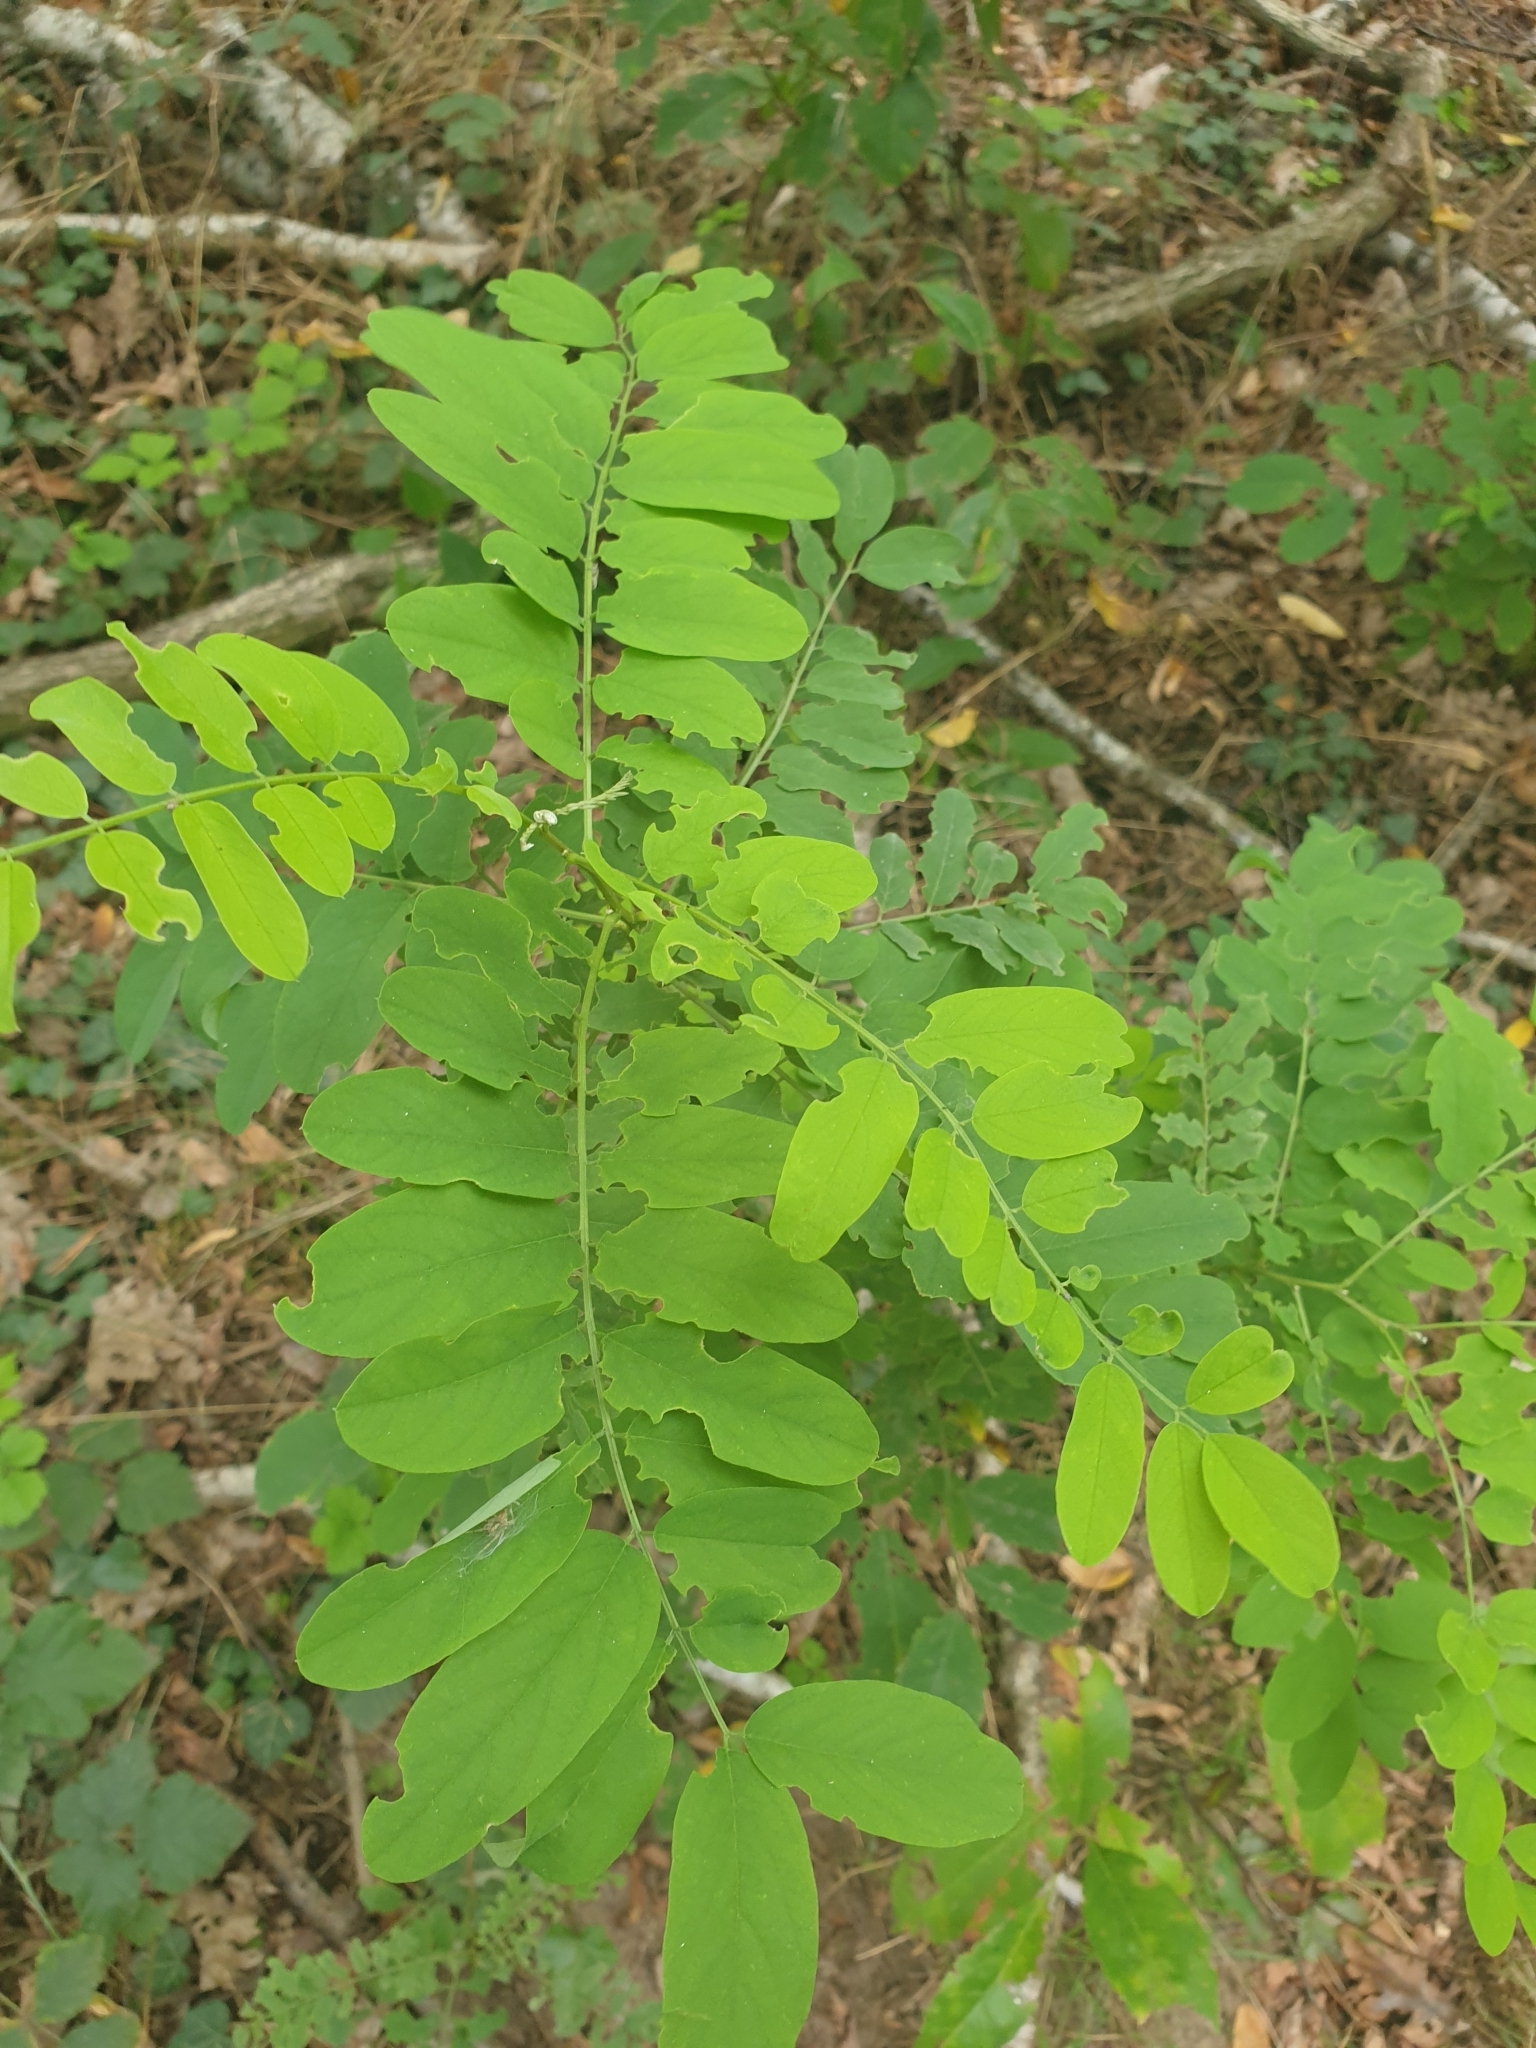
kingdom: Plantae
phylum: Tracheophyta
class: Magnoliopsida
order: Fabales
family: Fabaceae
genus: Robinia
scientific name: Robinia pseudoacacia
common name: Black locust
